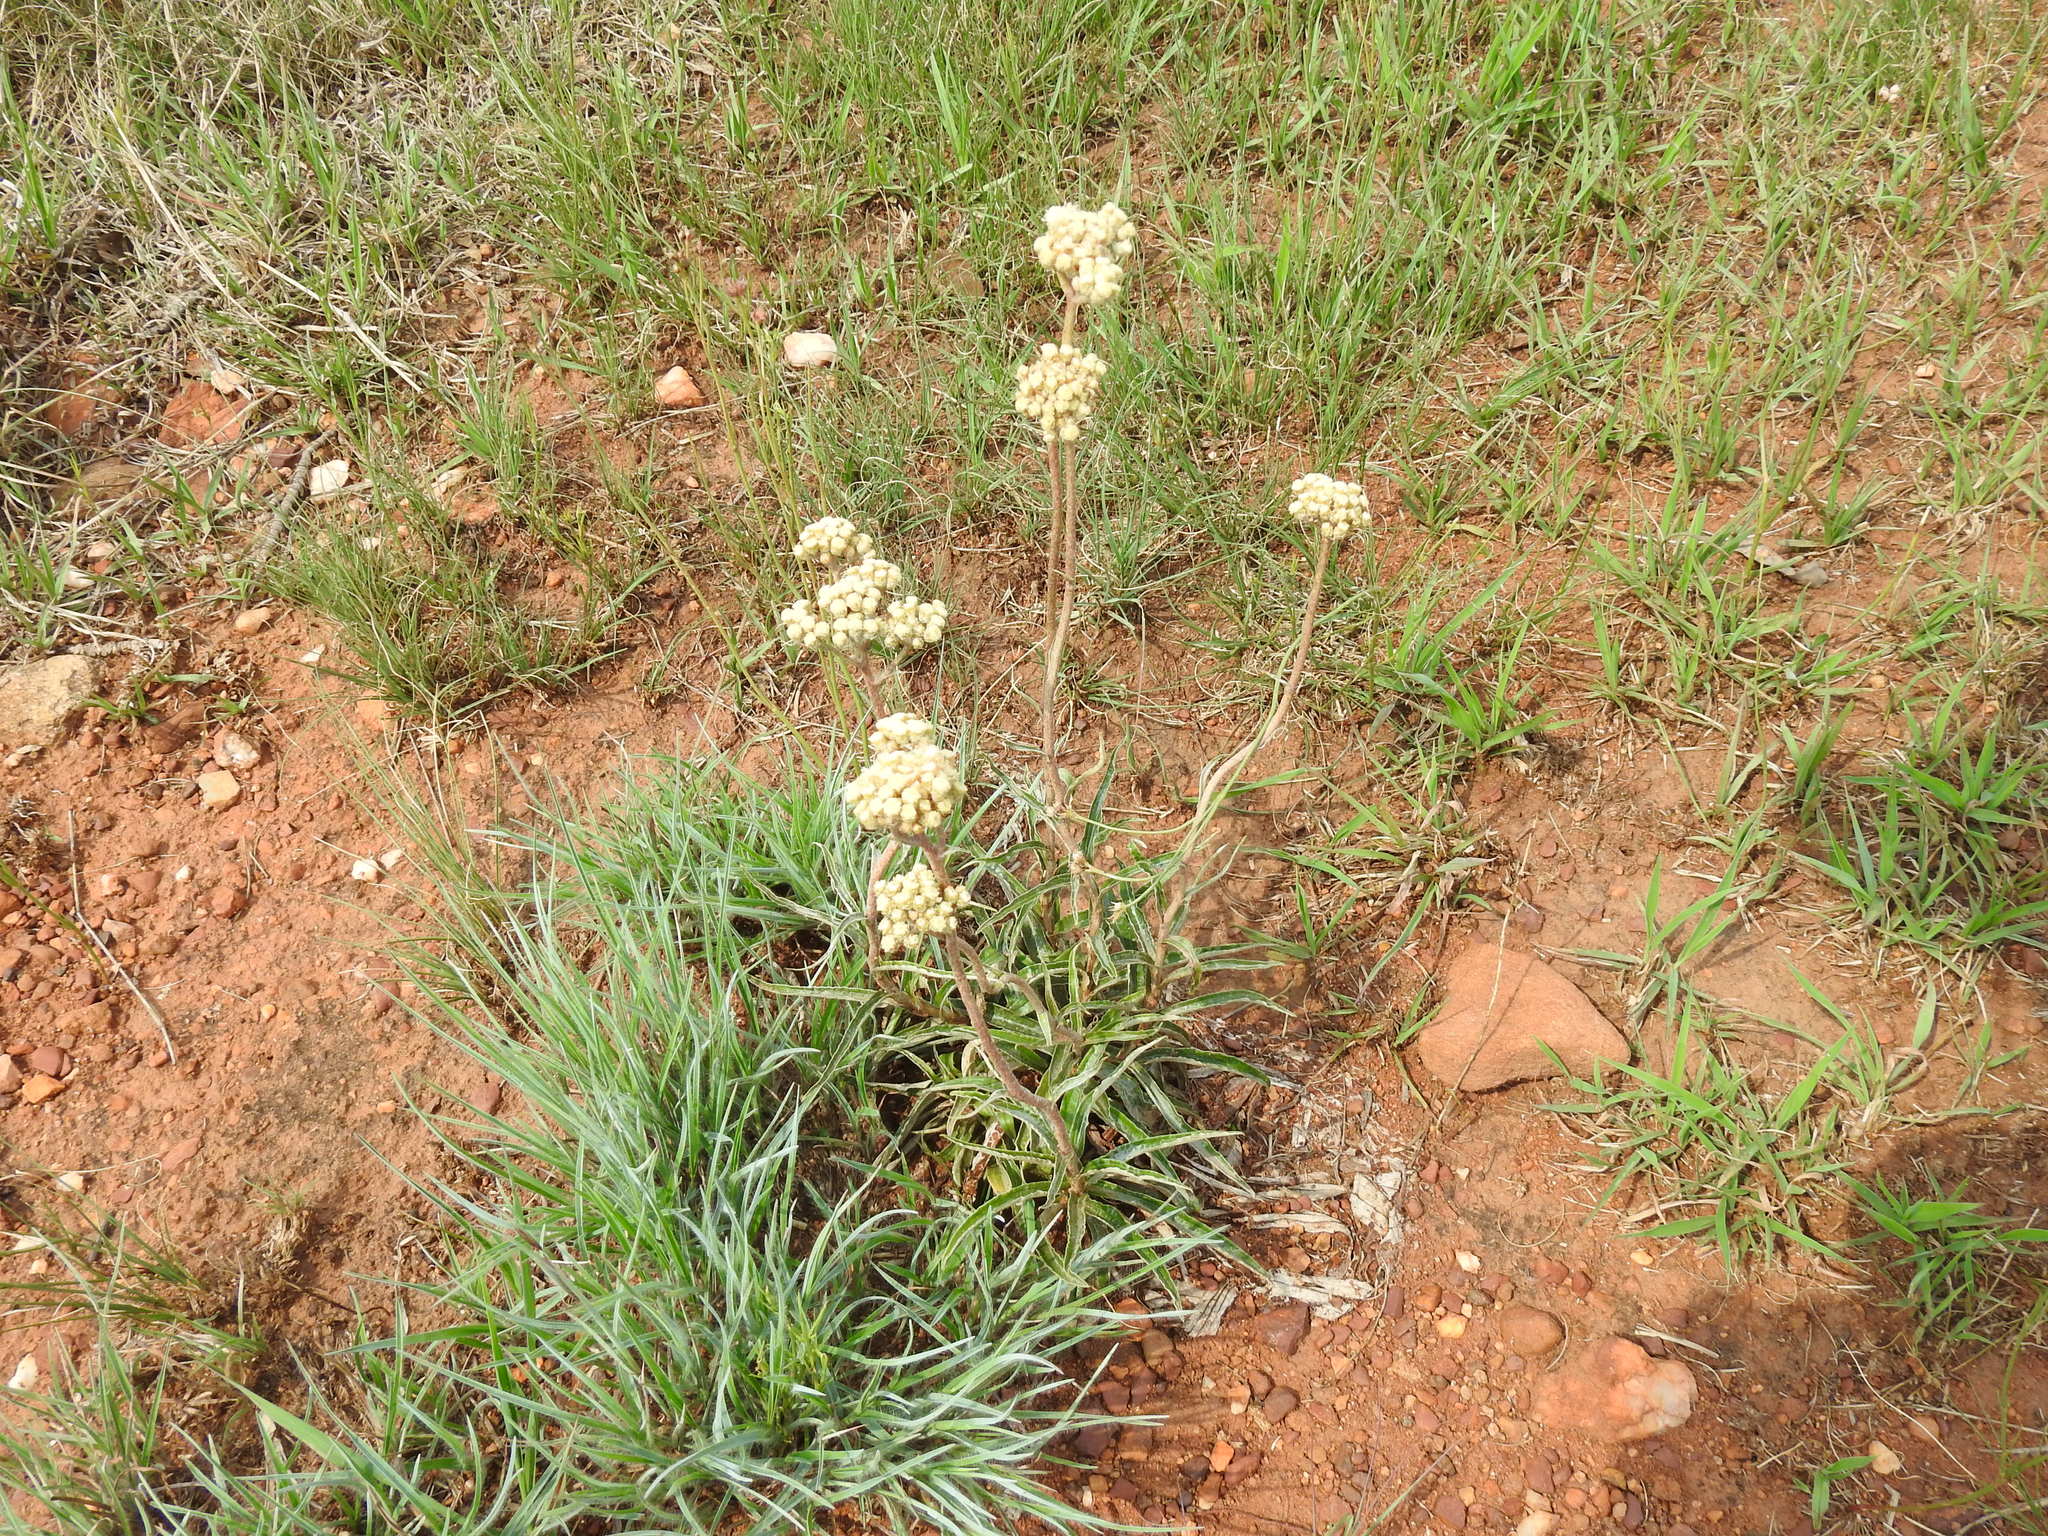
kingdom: Plantae
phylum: Tracheophyta
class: Magnoliopsida
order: Asterales
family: Asteraceae
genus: Helichrysum
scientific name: Helichrysum nudifolium
